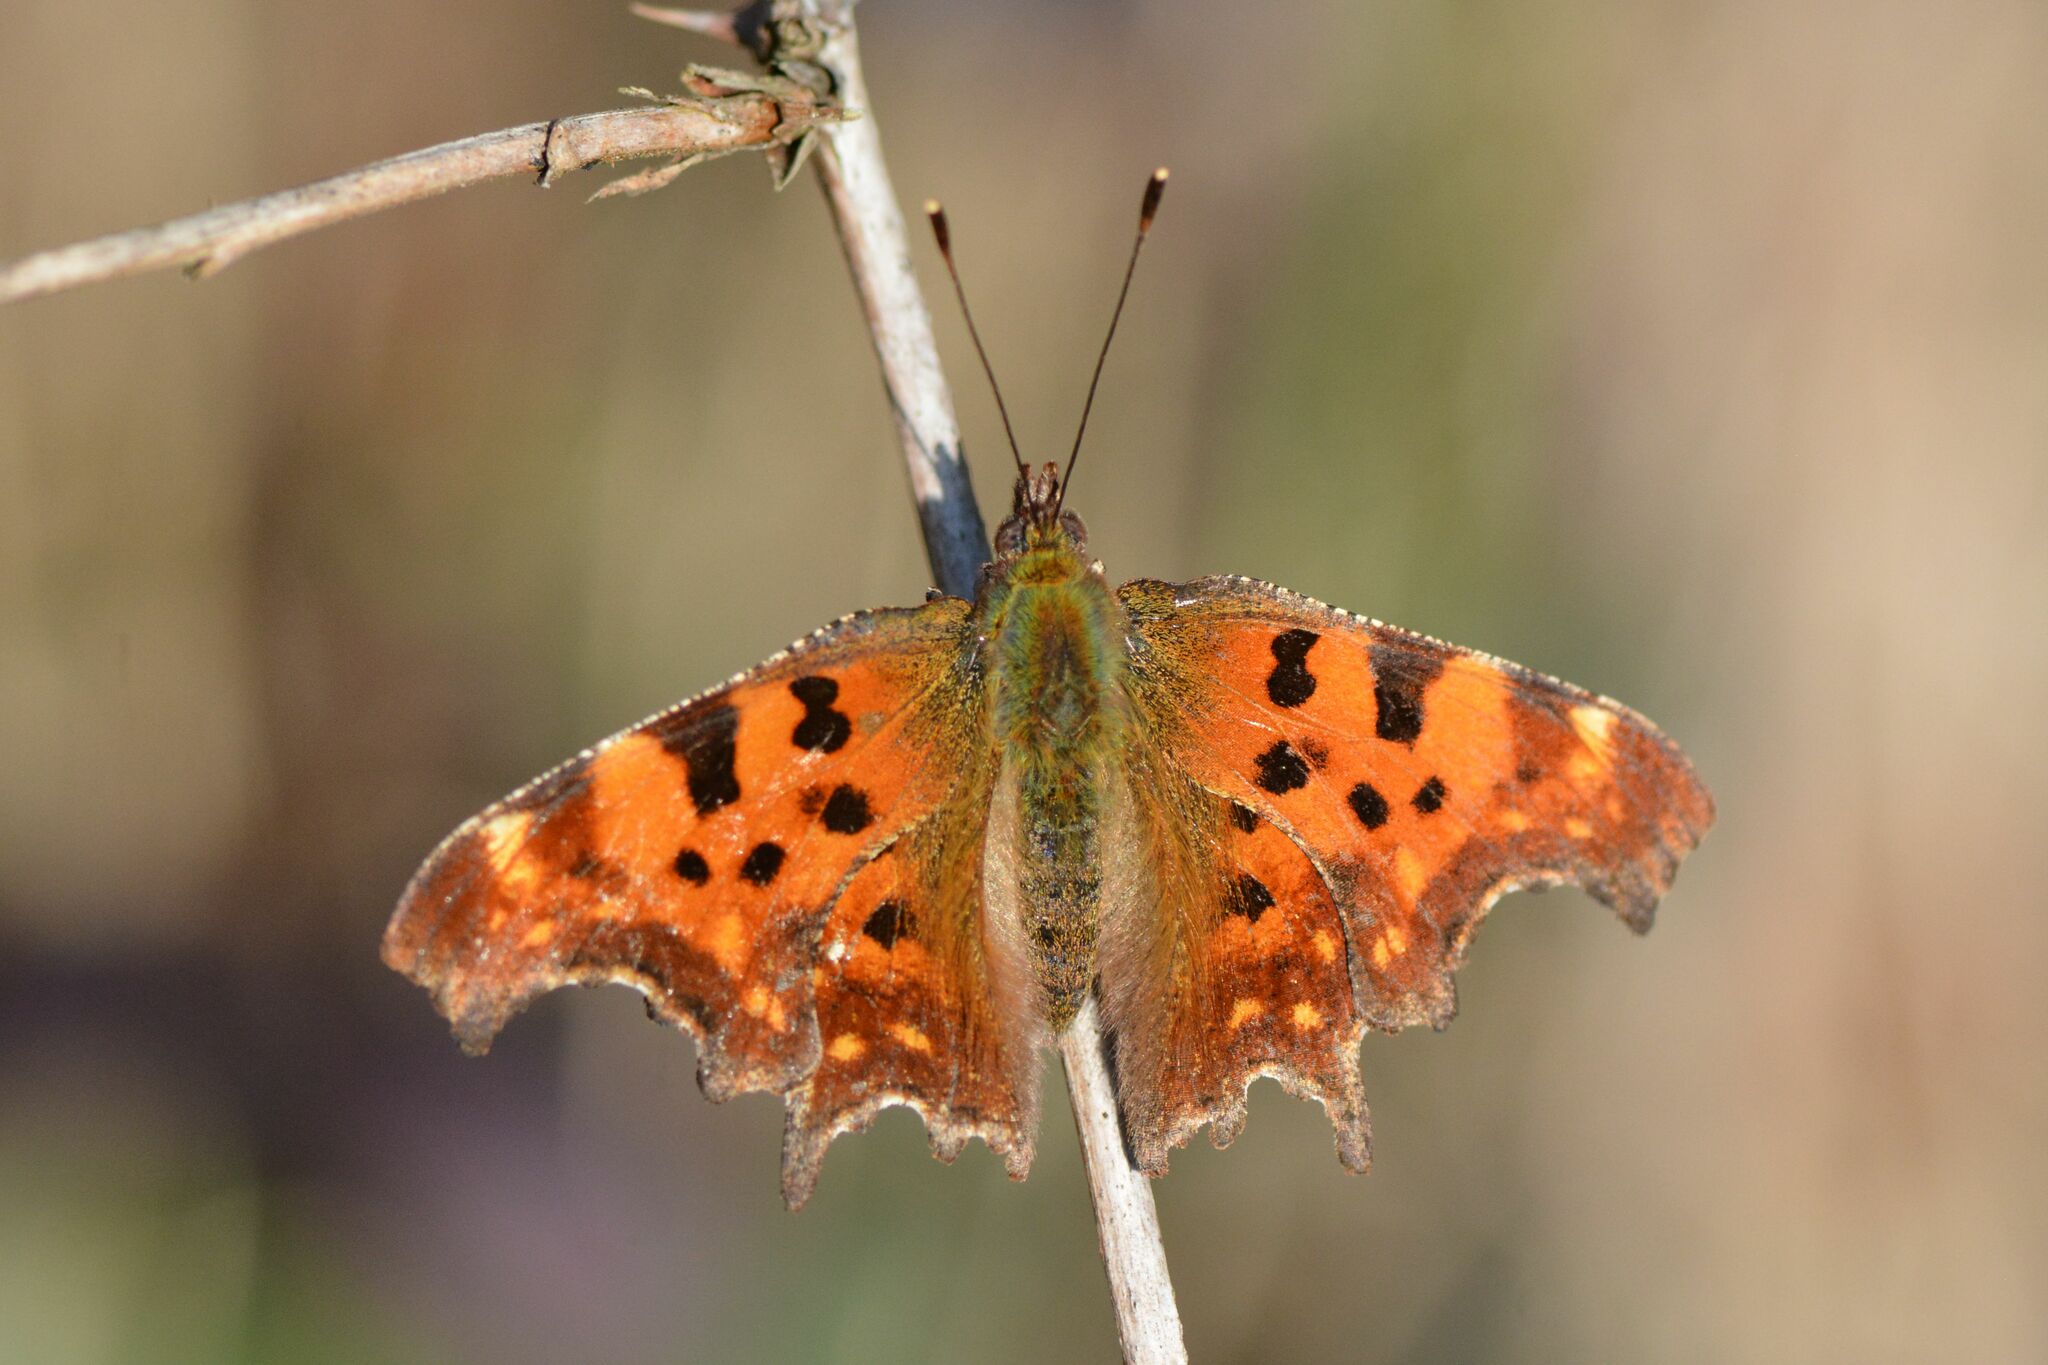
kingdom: Animalia
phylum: Arthropoda
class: Insecta
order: Lepidoptera
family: Nymphalidae
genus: Polygonia
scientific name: Polygonia c-album
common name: Comma
